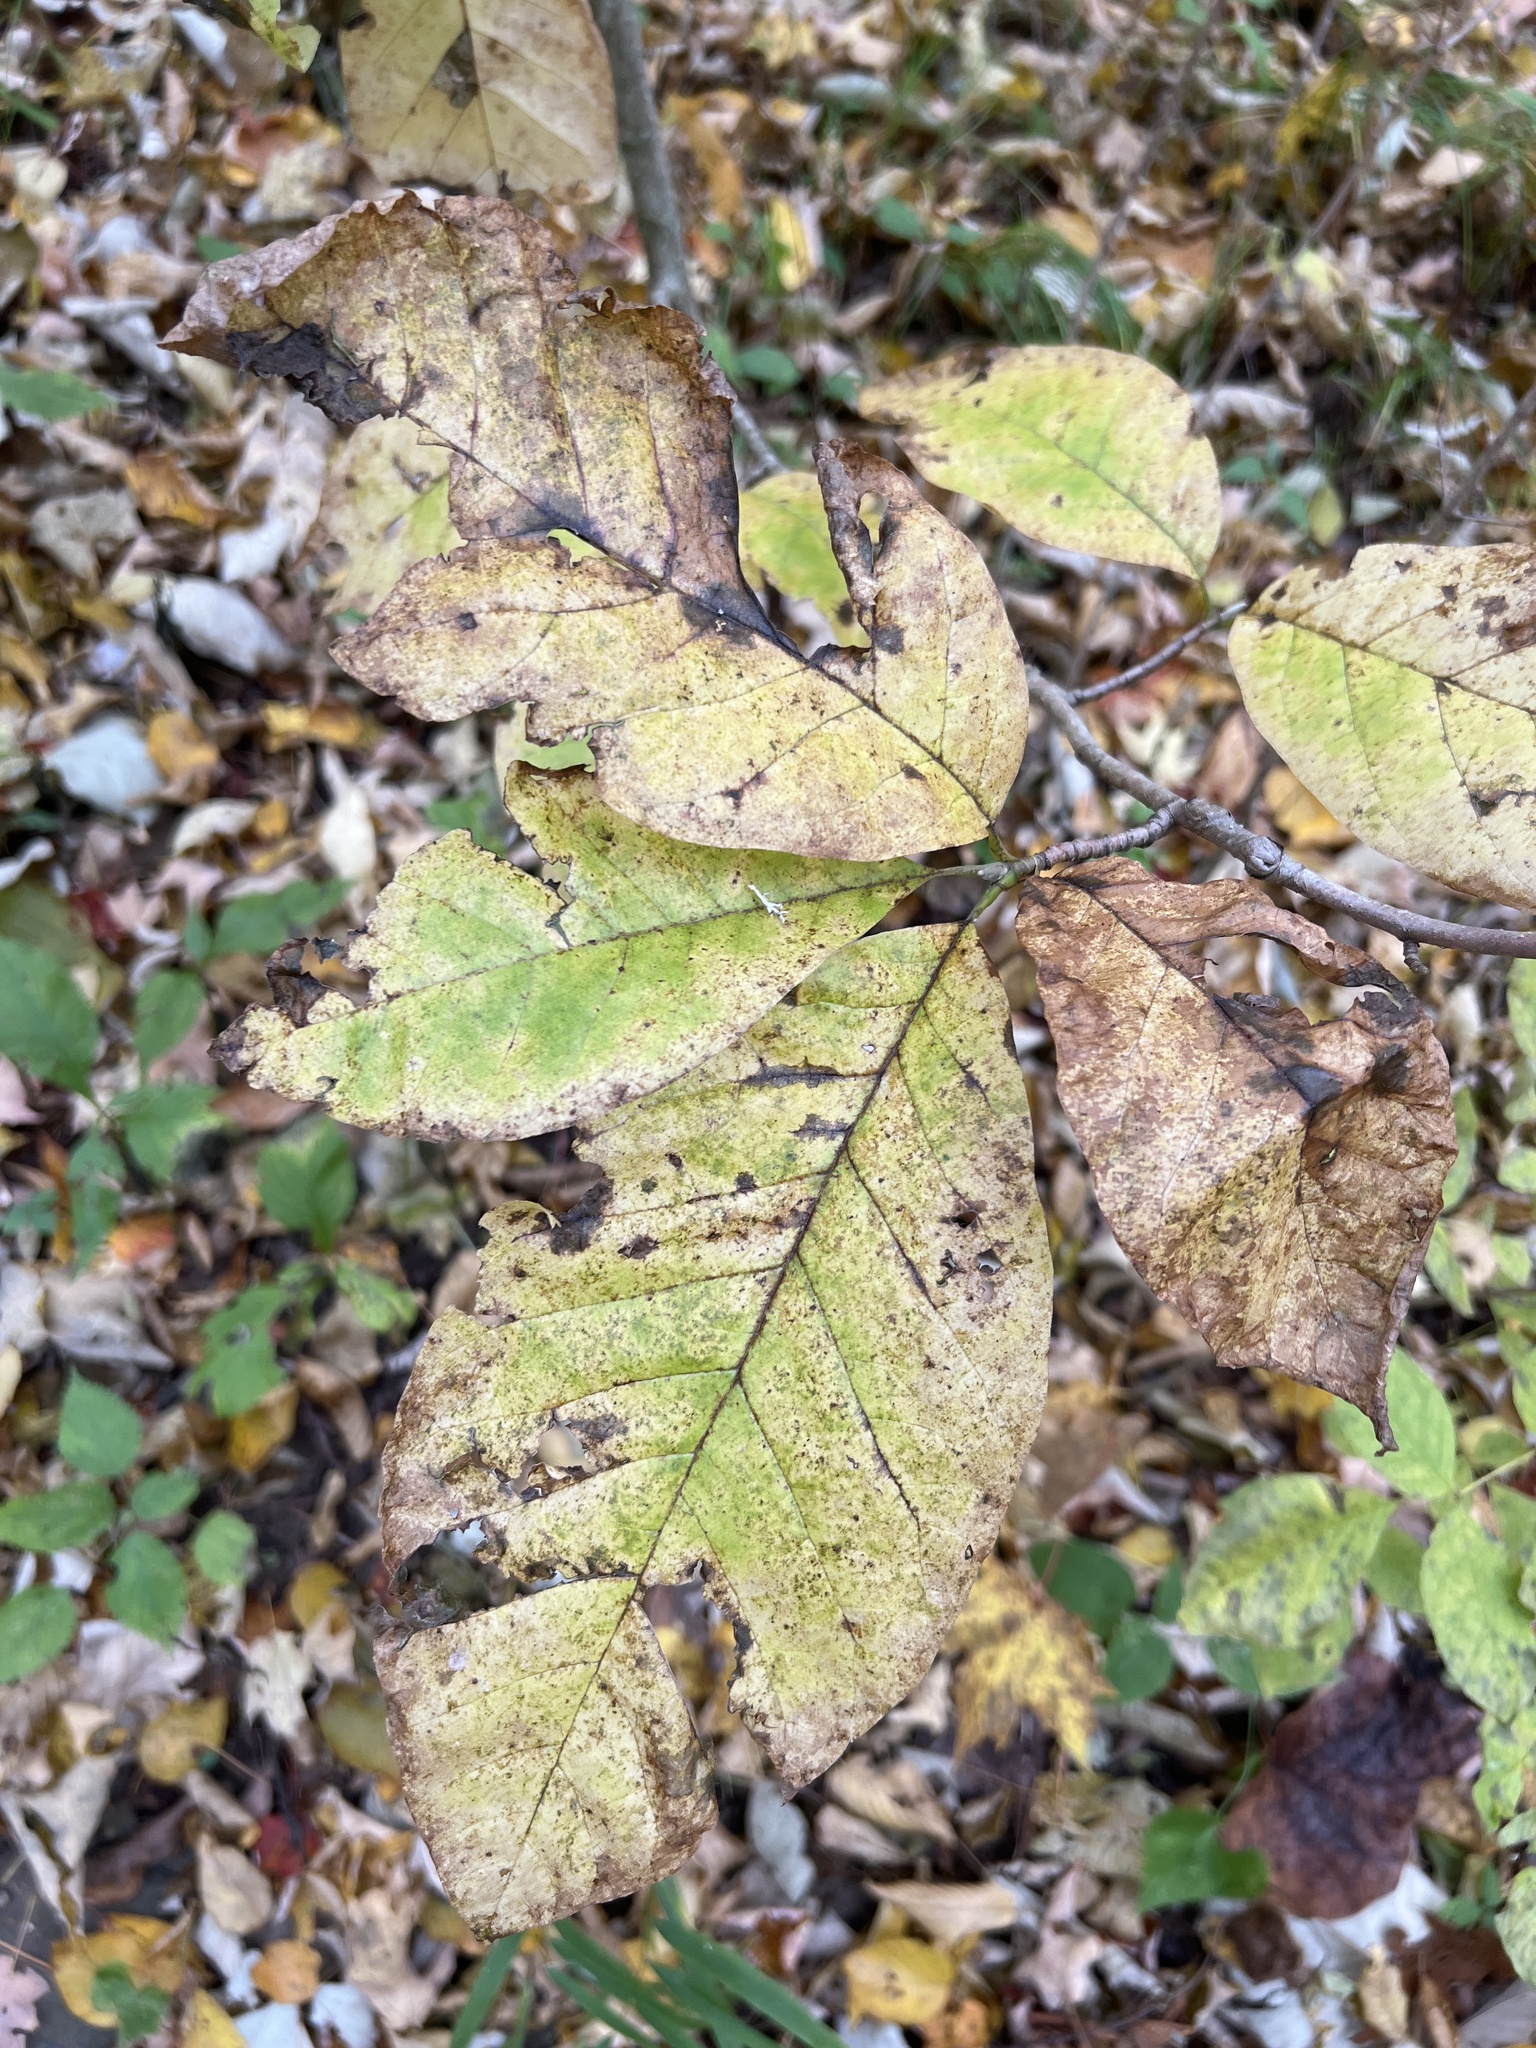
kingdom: Plantae
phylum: Tracheophyta
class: Magnoliopsida
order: Magnoliales
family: Magnoliaceae
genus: Magnolia
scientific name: Magnolia acuminata
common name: Cucumber magnolia
